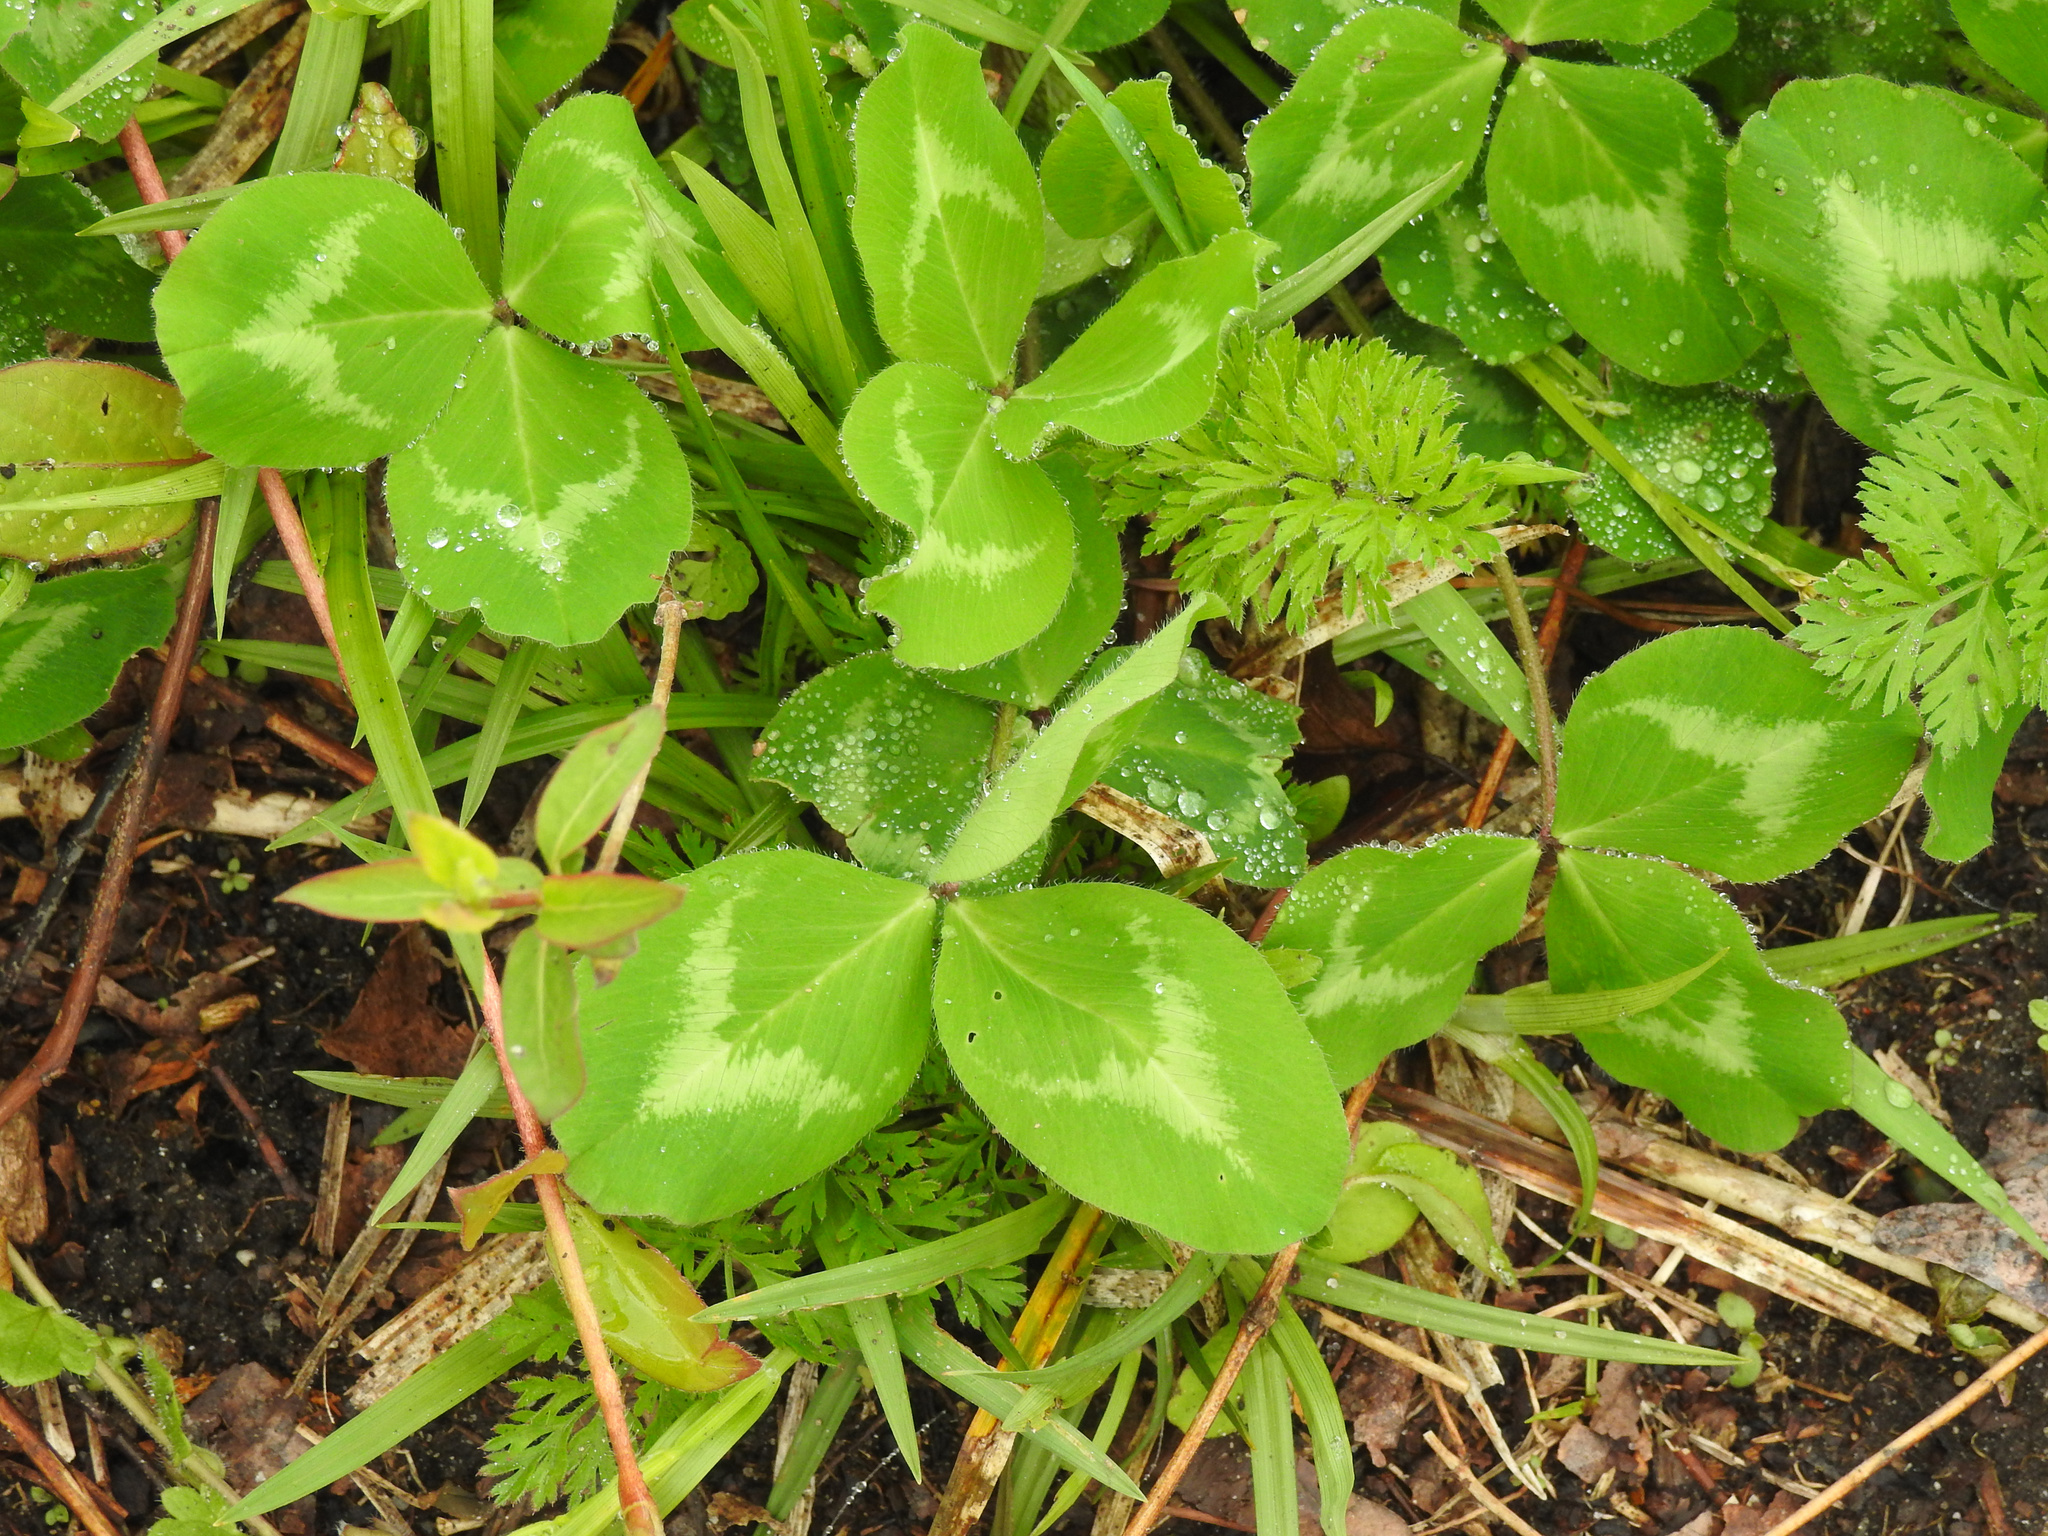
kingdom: Plantae
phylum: Tracheophyta
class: Magnoliopsida
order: Fabales
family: Fabaceae
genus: Trifolium
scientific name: Trifolium pratense
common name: Red clover
